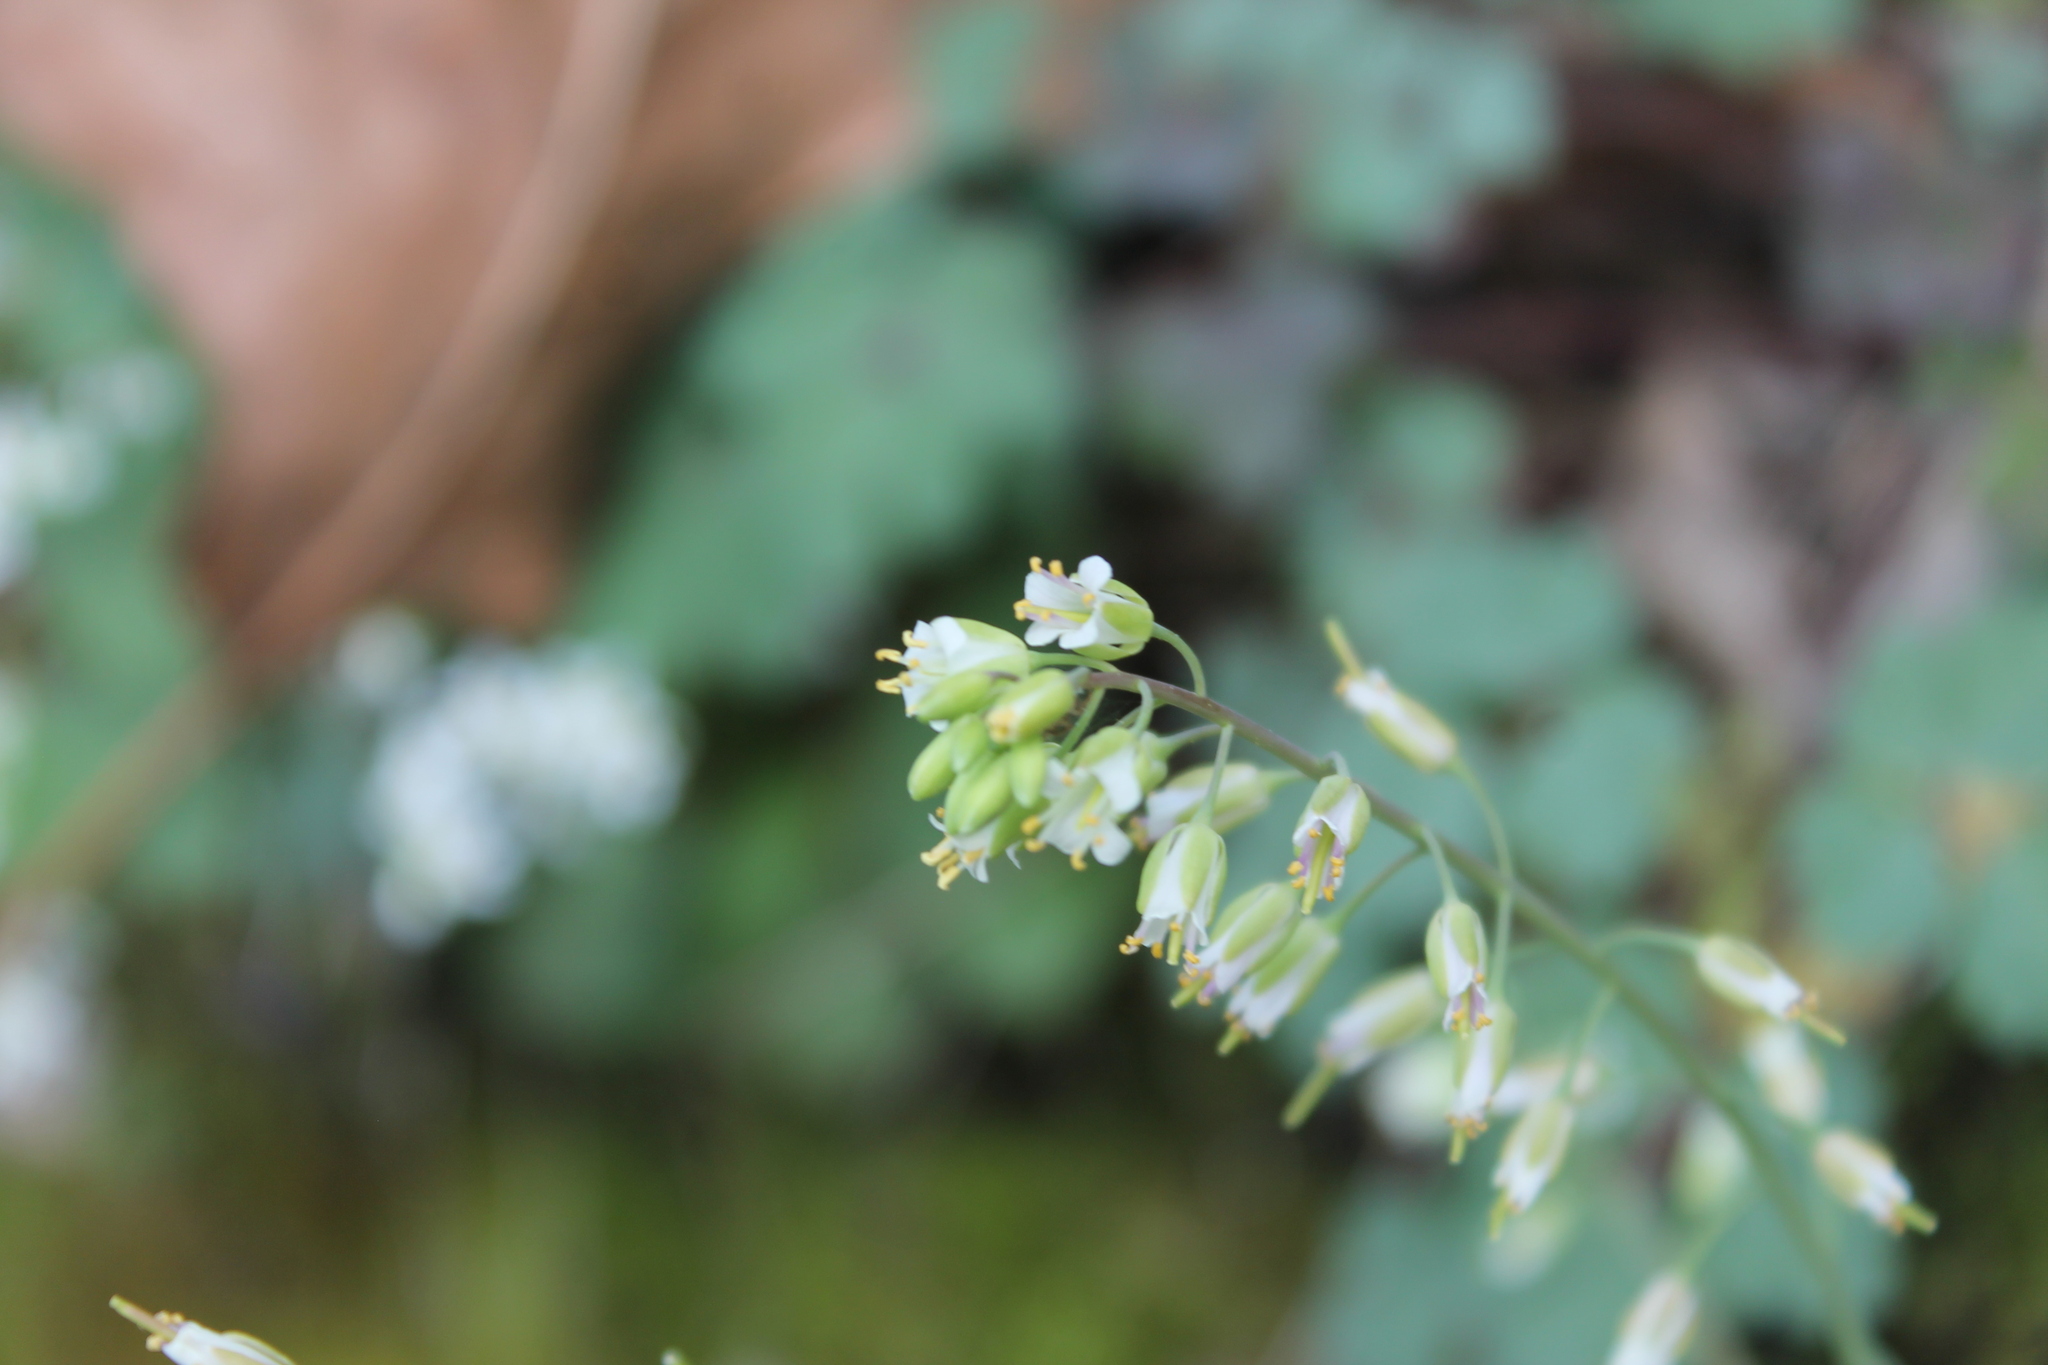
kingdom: Plantae
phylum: Tracheophyta
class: Magnoliopsida
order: Brassicales
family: Brassicaceae
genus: Borodinia
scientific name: Borodinia laevigata
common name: Smooth rockcress
